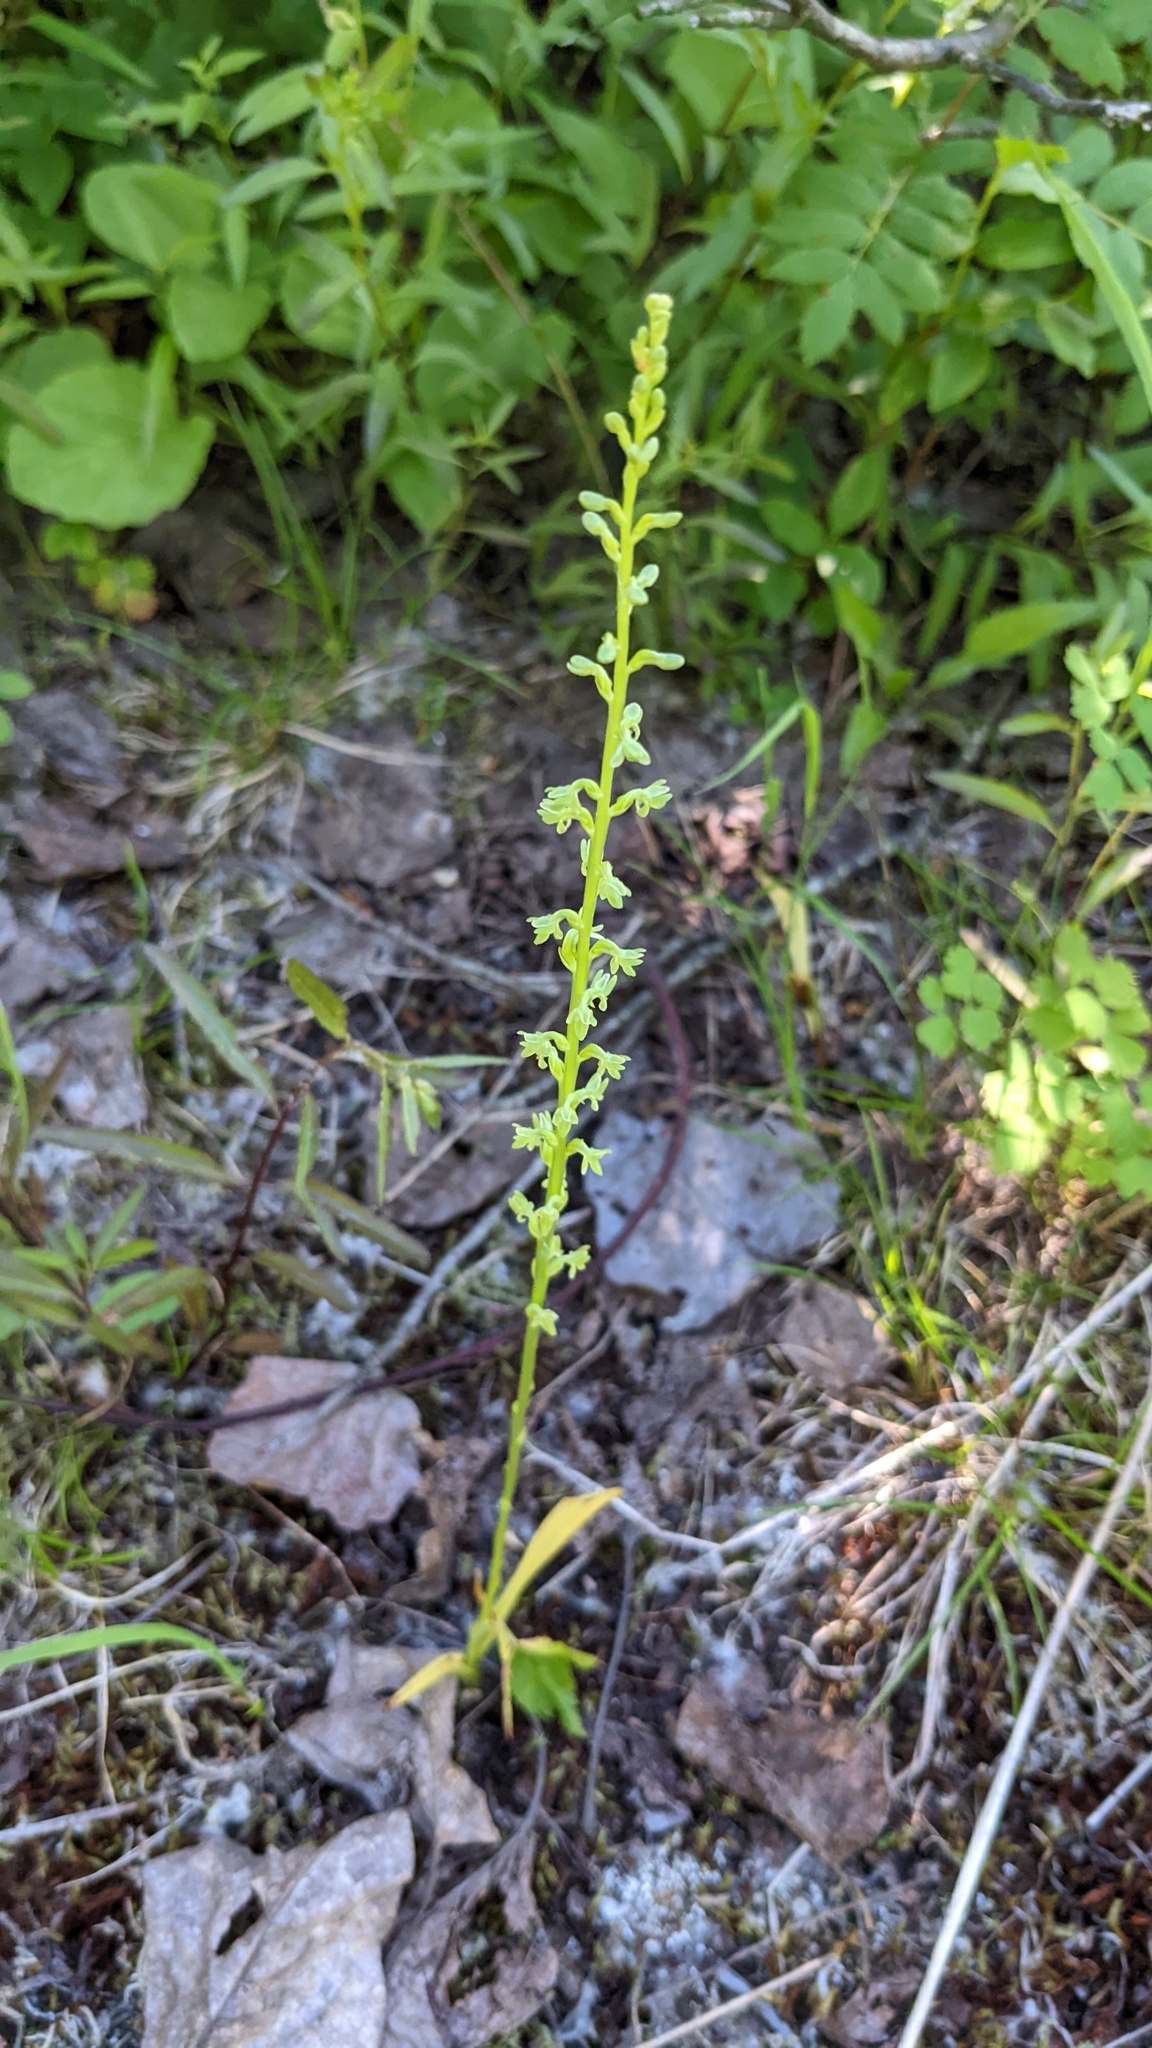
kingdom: Plantae
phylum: Tracheophyta
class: Liliopsida
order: Asparagales
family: Orchidaceae
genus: Platanthera
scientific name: Platanthera unalascensis
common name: Alaska bog orchid
